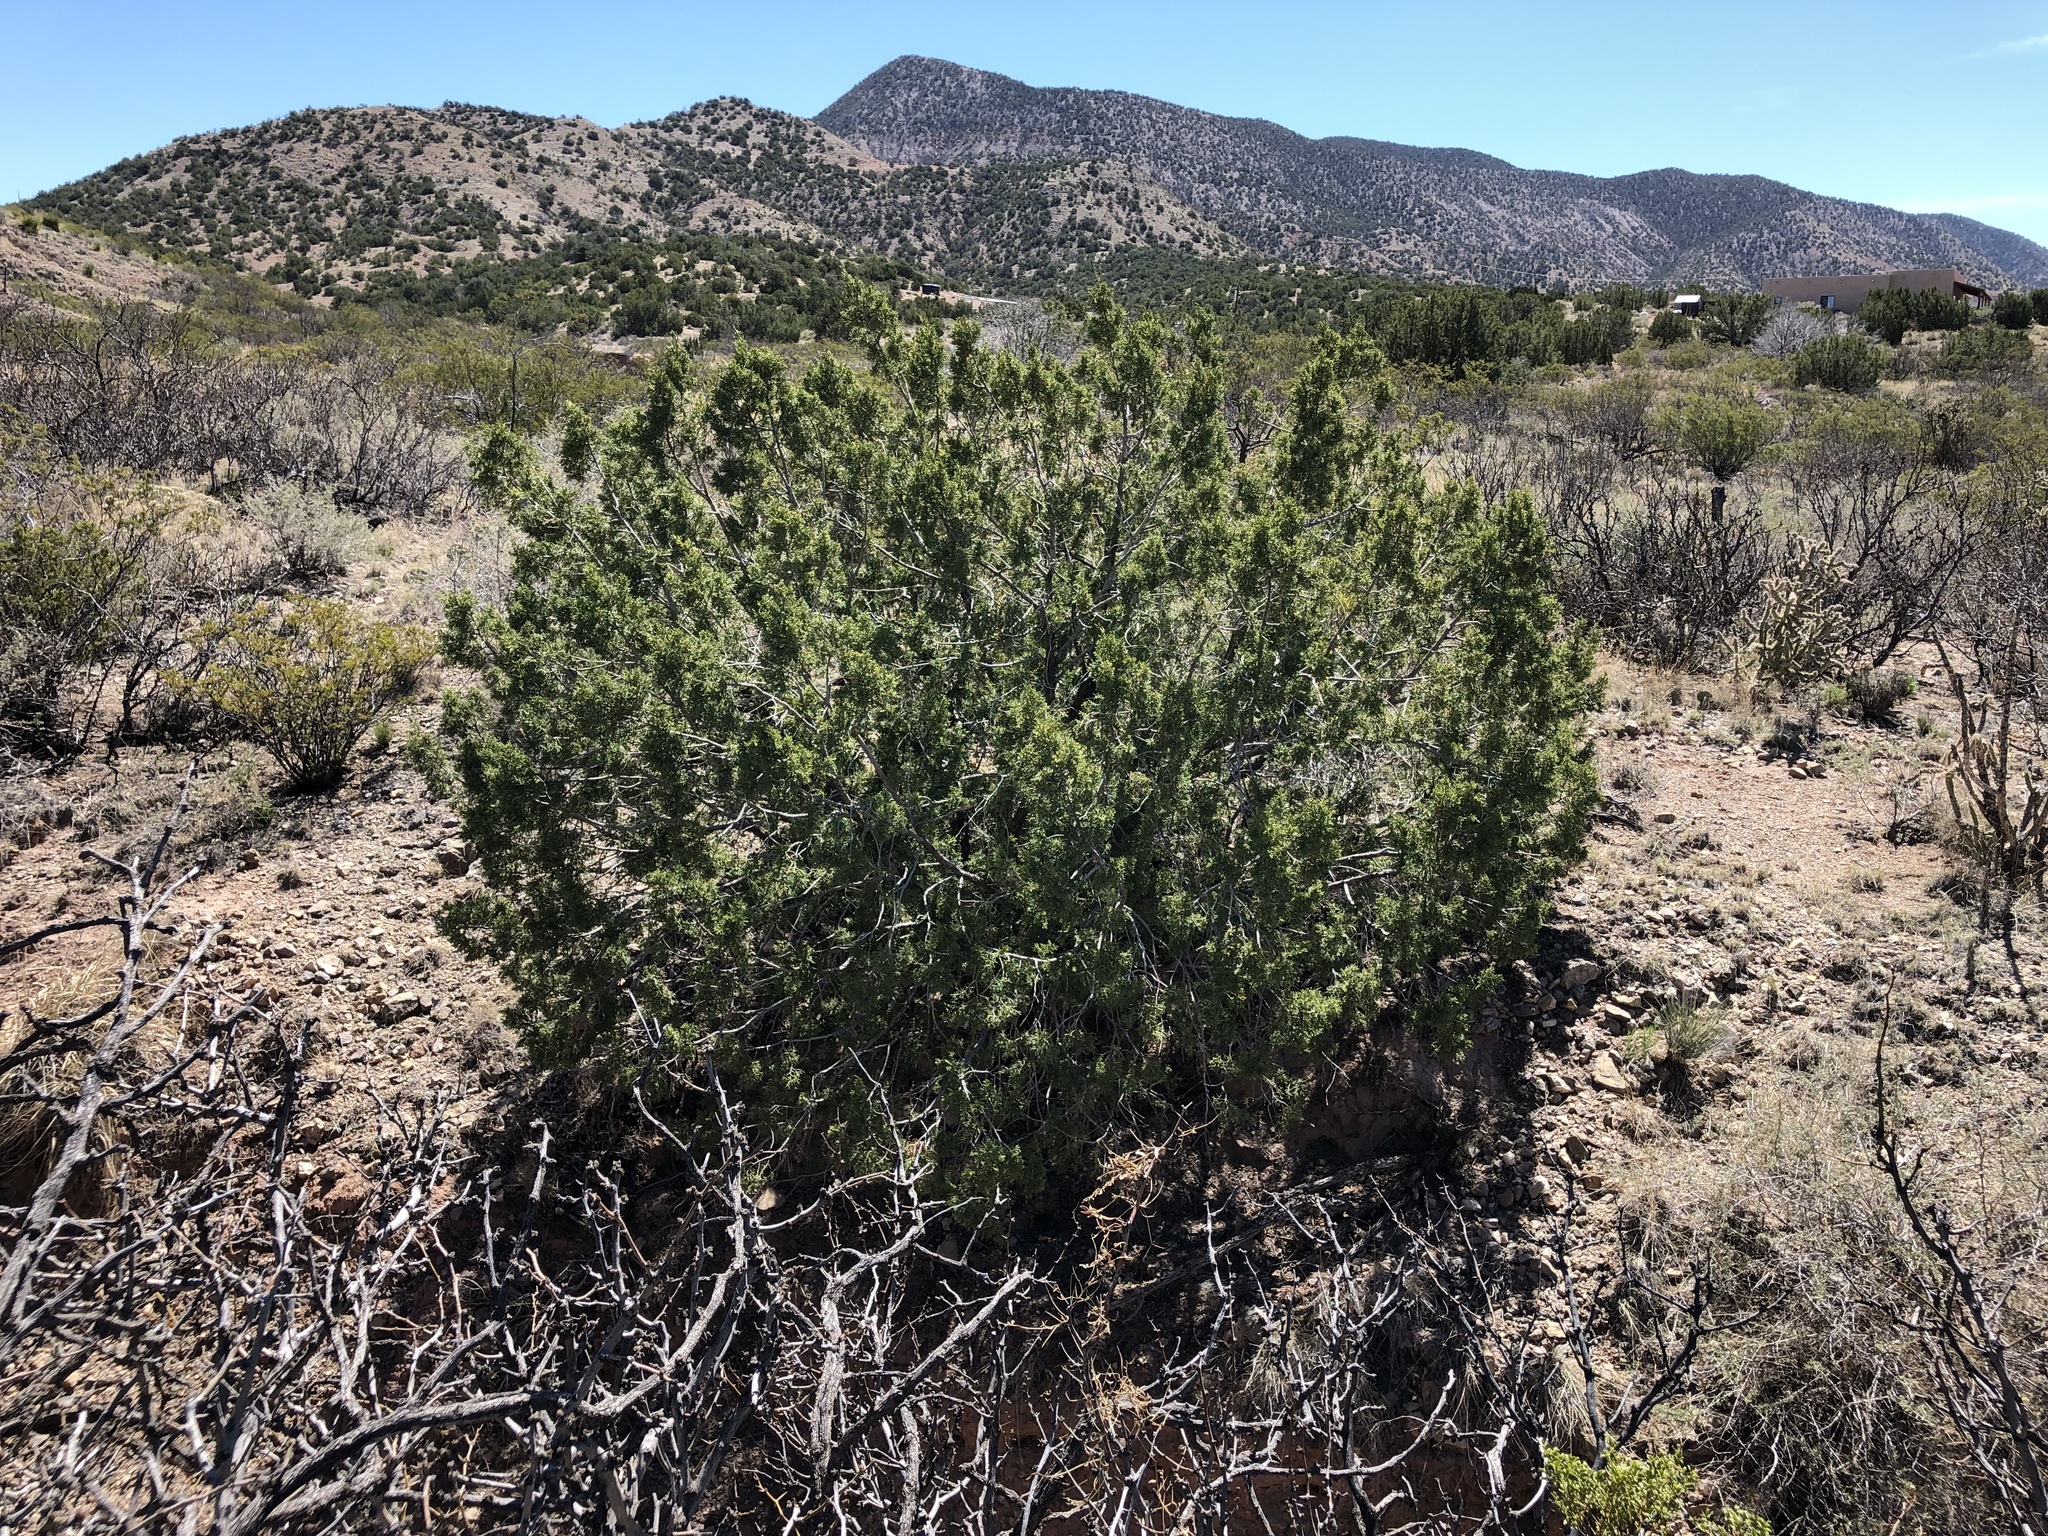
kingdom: Plantae
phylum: Tracheophyta
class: Pinopsida
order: Pinales
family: Cupressaceae
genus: Juniperus
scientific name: Juniperus monosperma
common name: One-seed juniper
